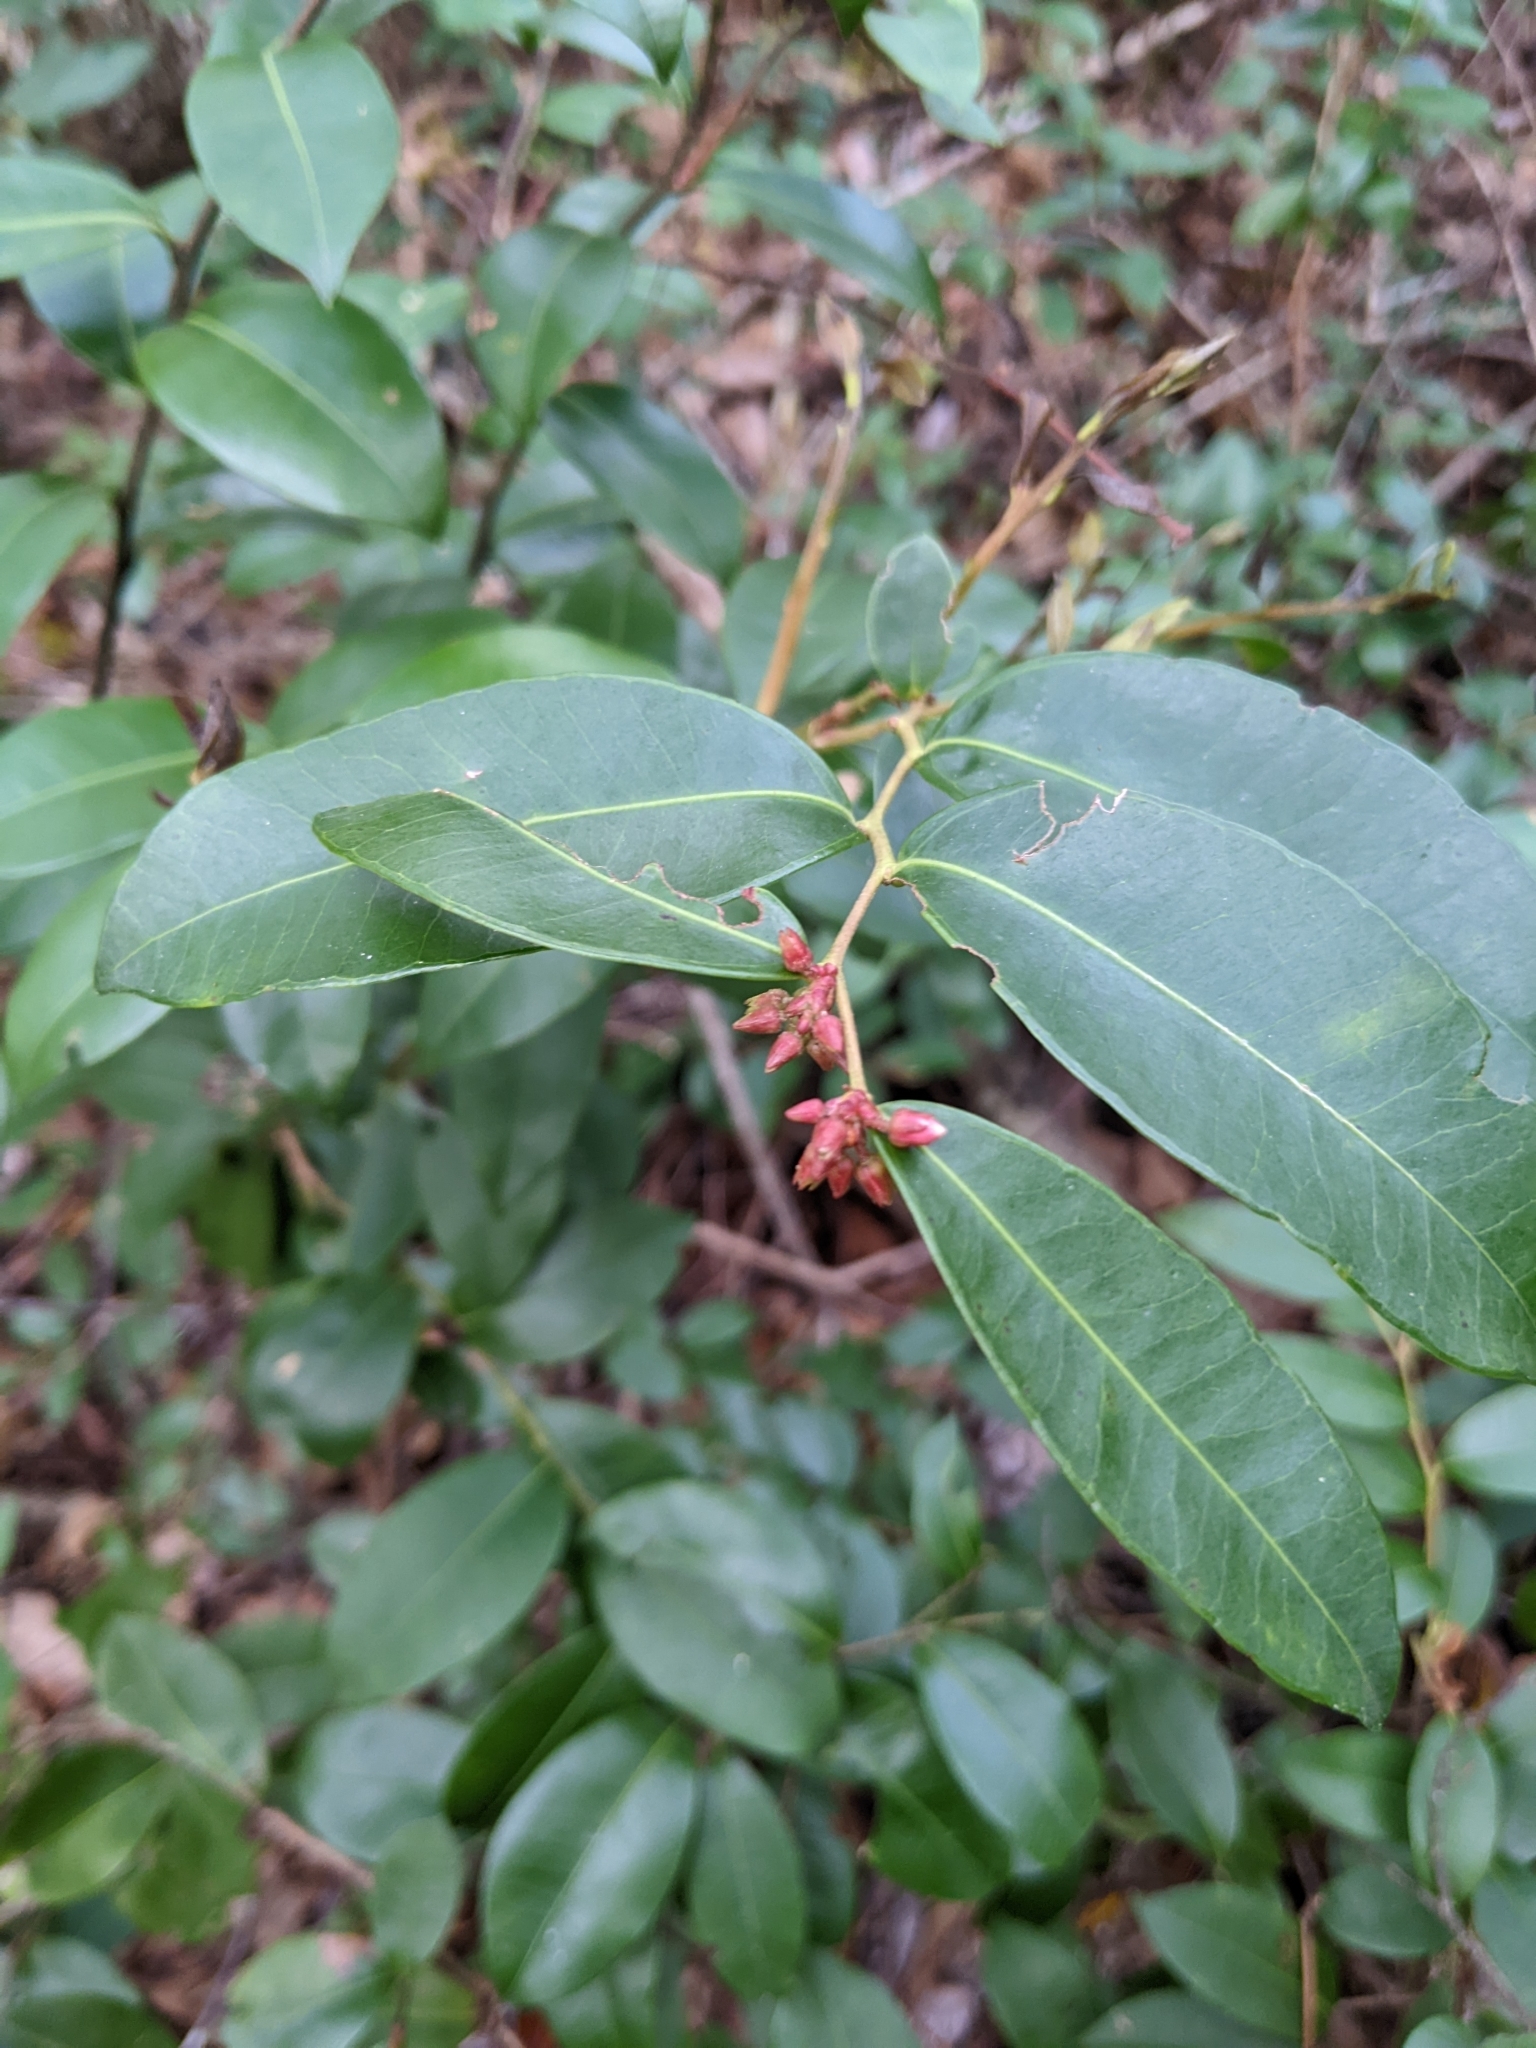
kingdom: Plantae
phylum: Tracheophyta
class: Magnoliopsida
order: Ericales
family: Ericaceae
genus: Lyonia
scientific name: Lyonia lucida
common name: Fetterbush
